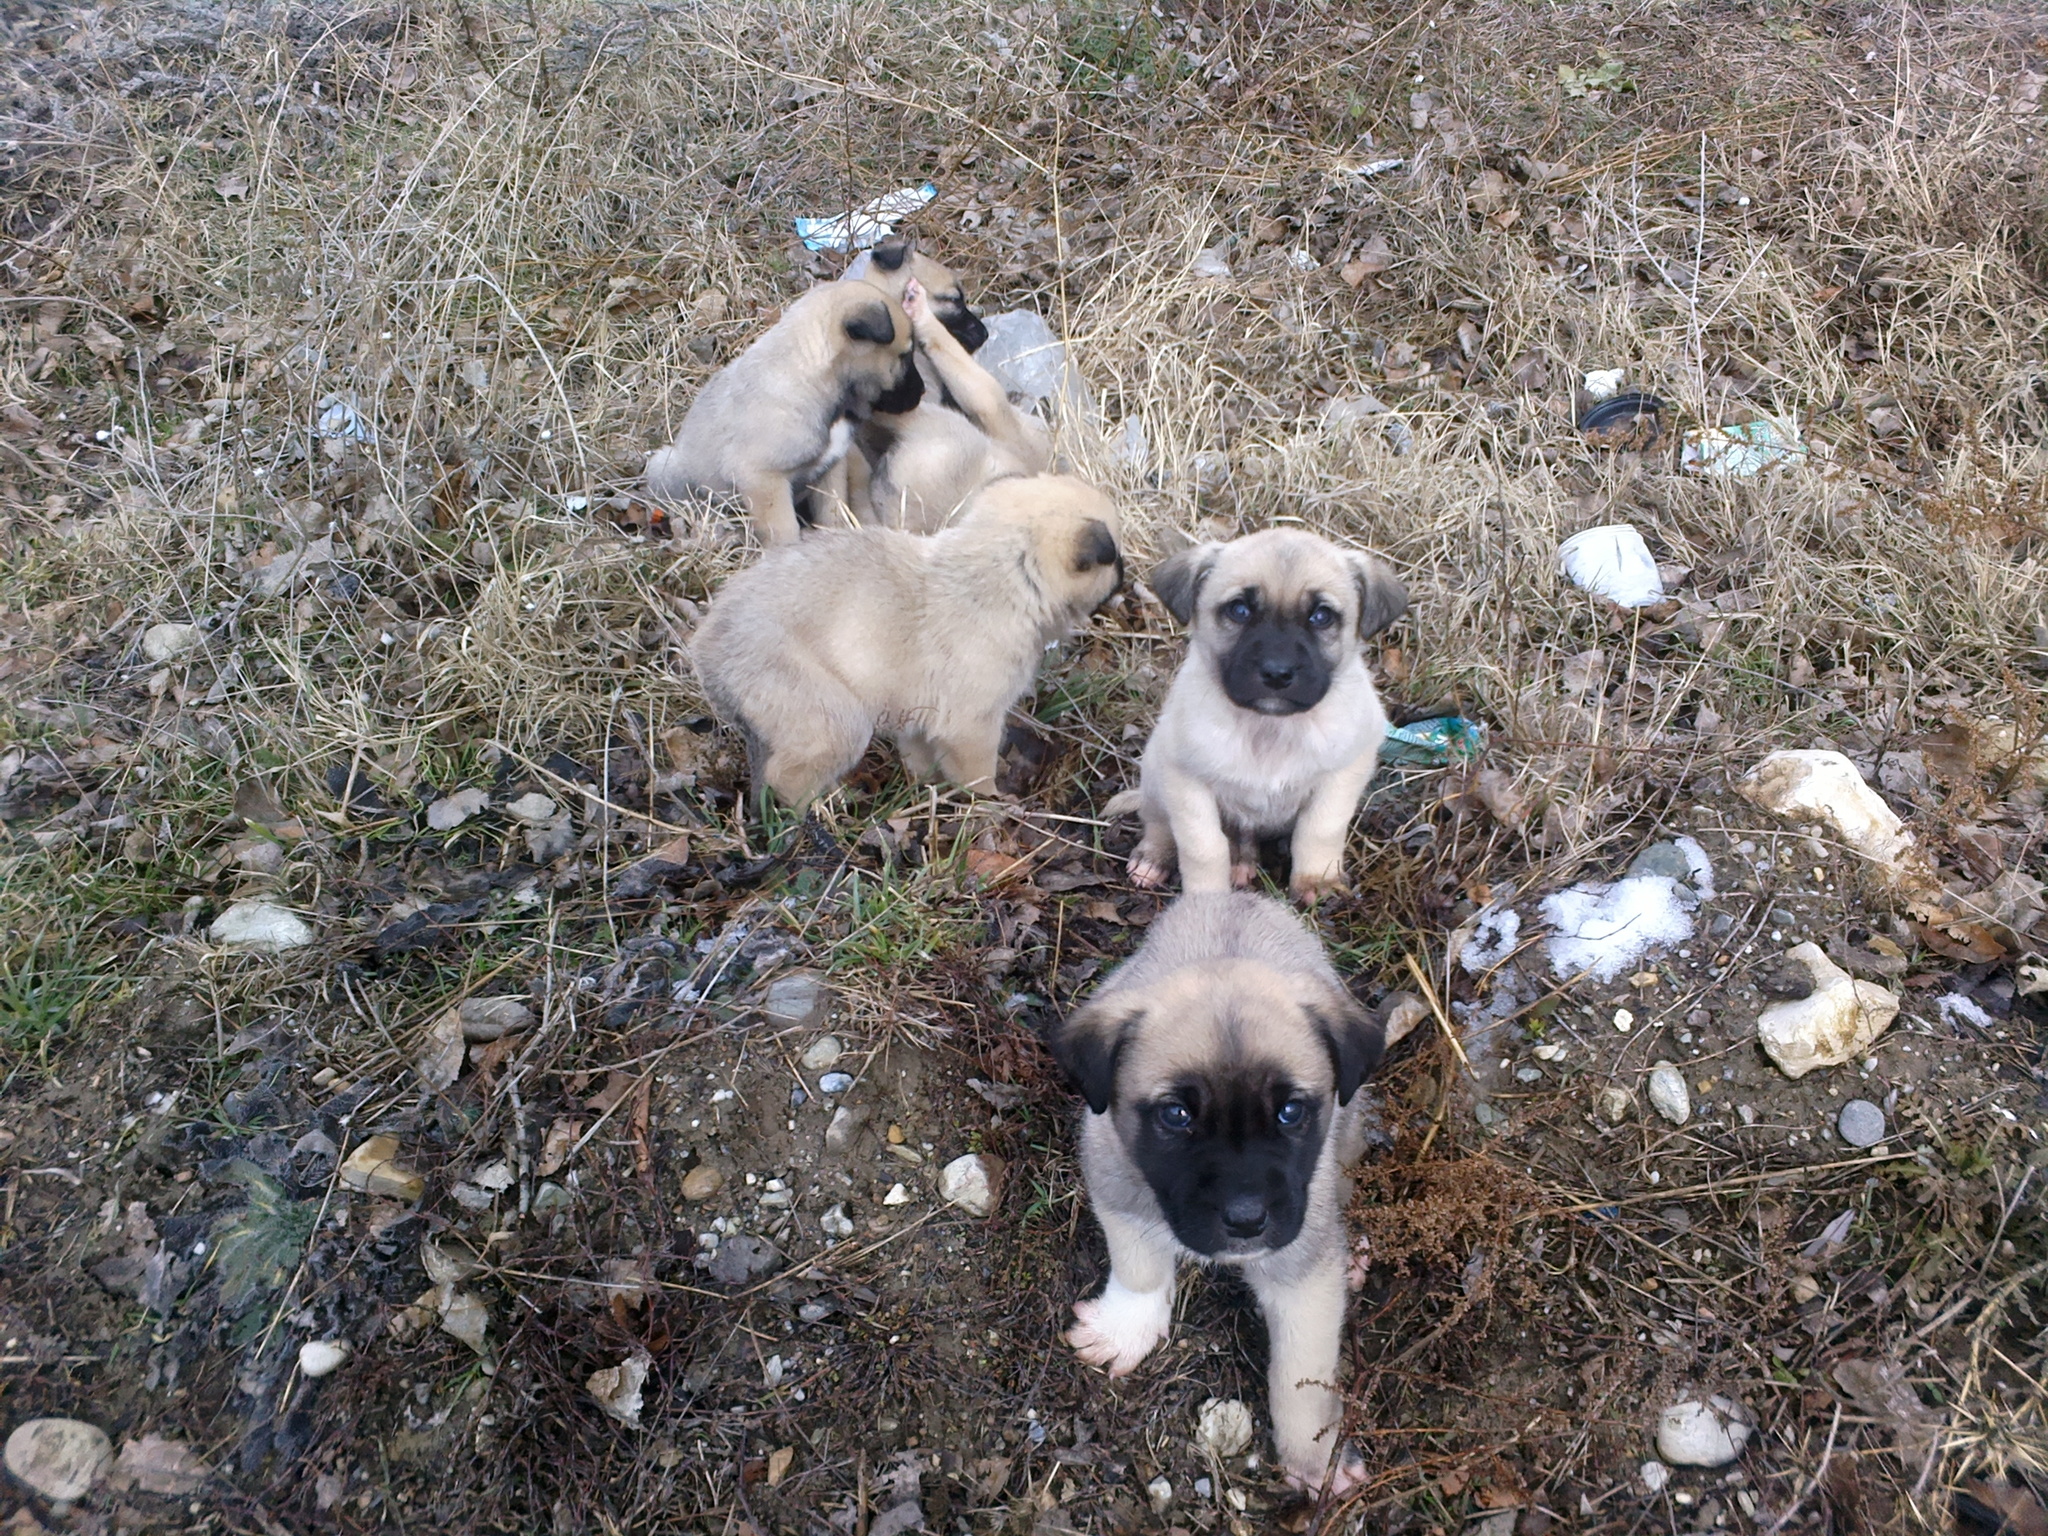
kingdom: Animalia
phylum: Chordata
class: Mammalia
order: Carnivora
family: Canidae
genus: Canis
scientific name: Canis lupus
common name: Gray wolf
